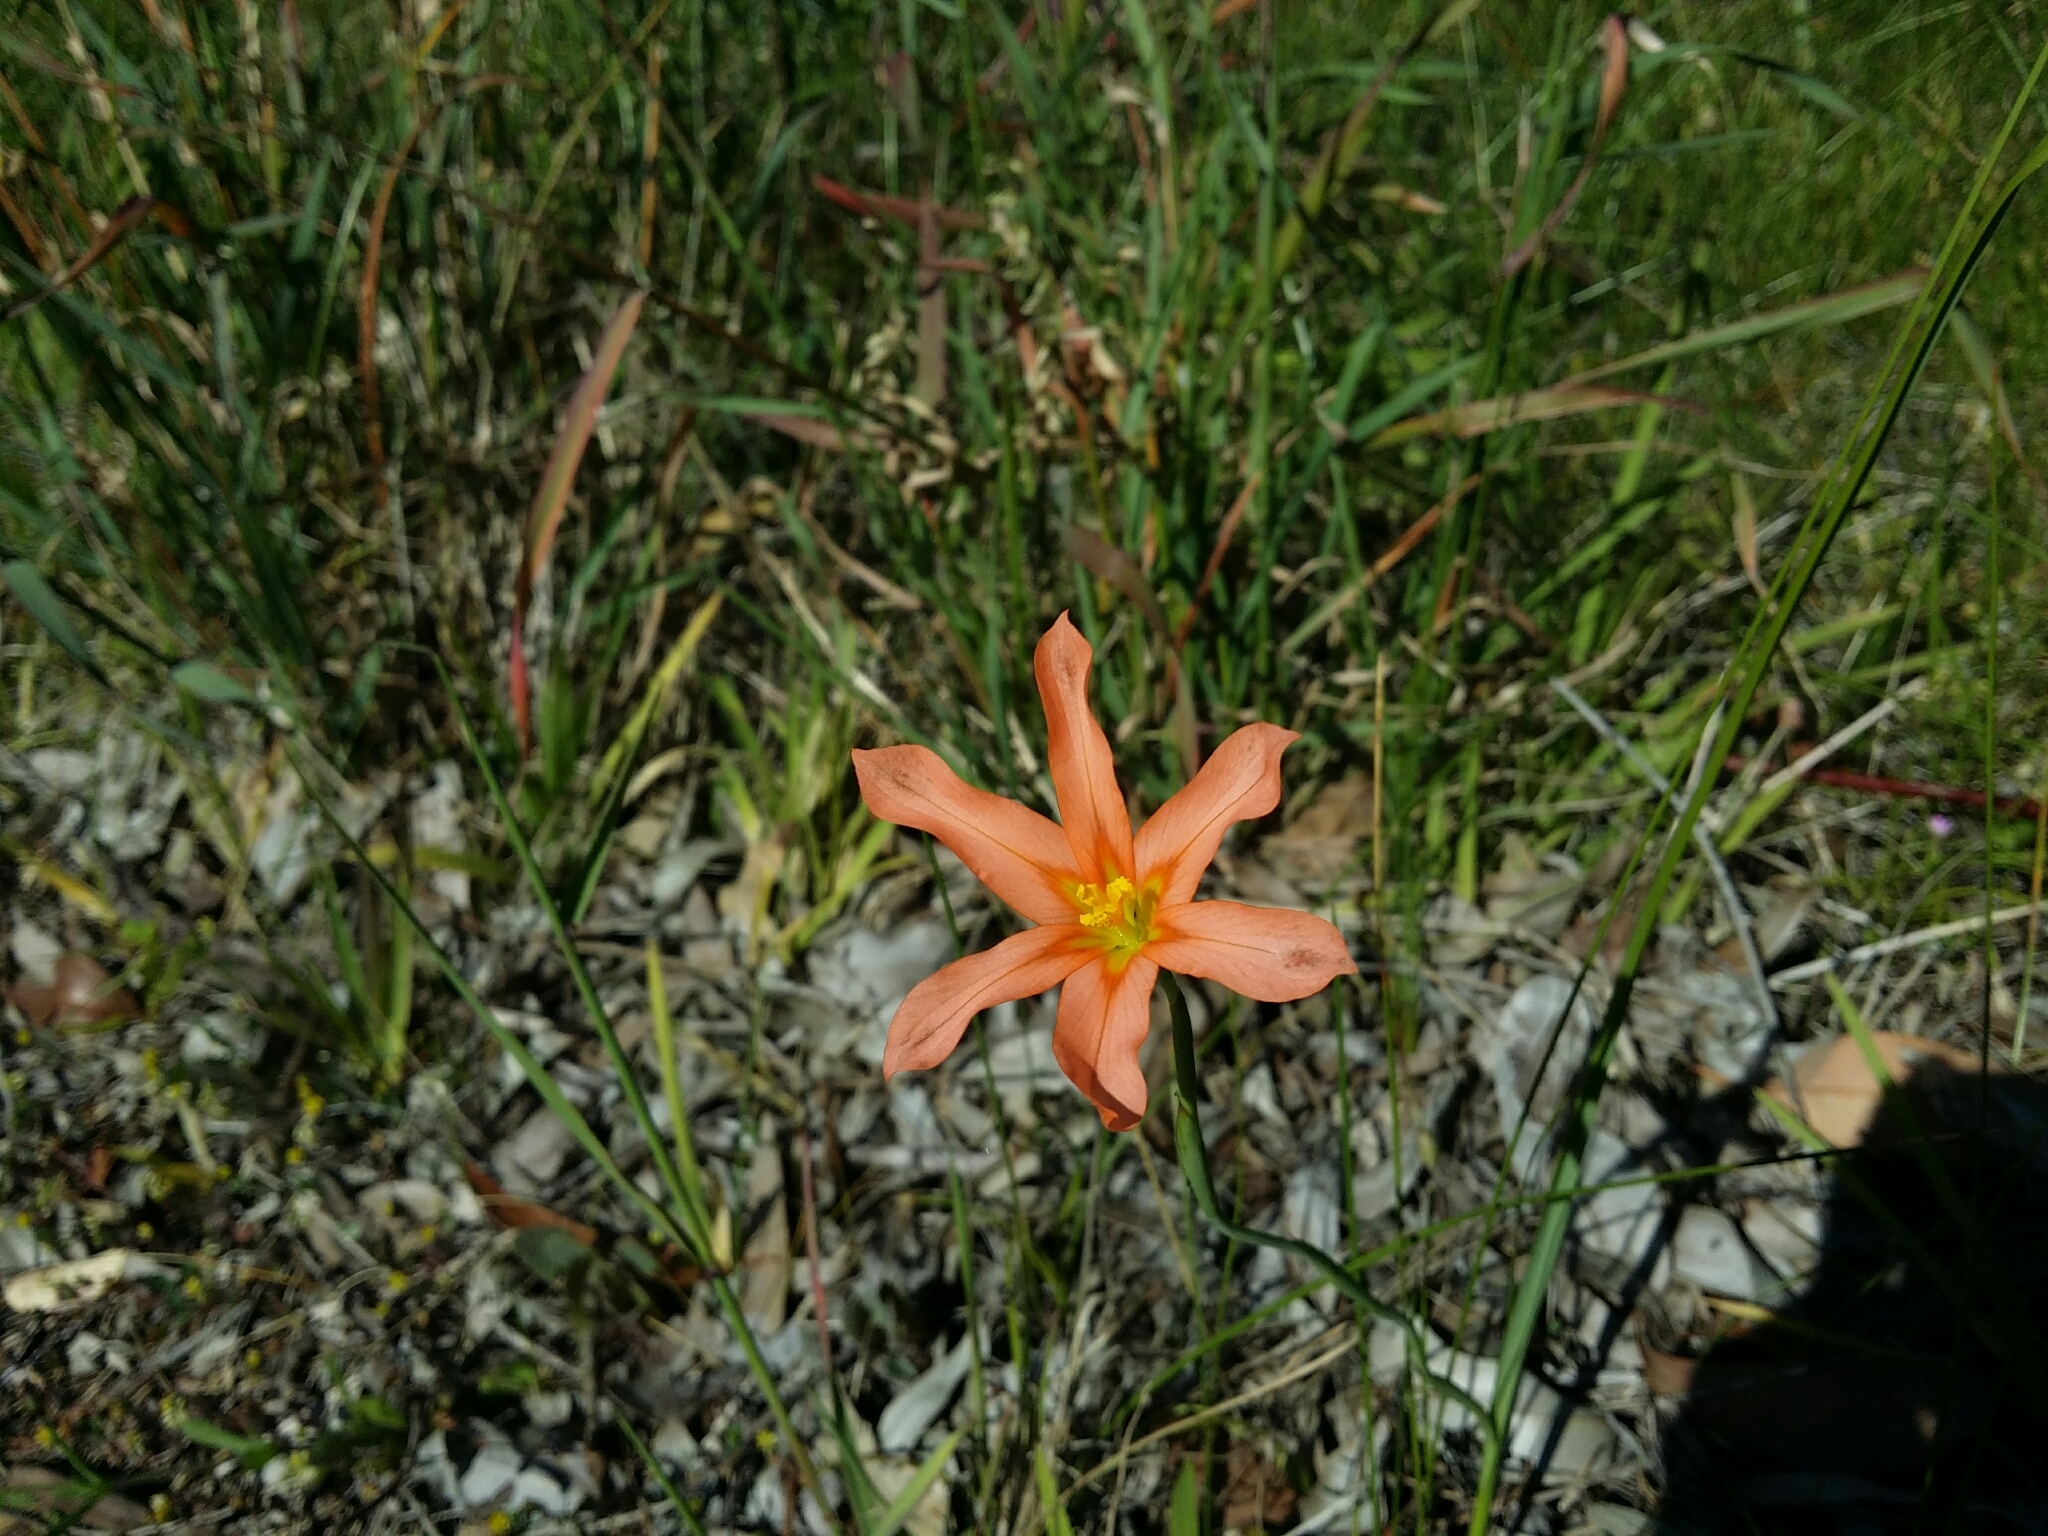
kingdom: Plantae
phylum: Tracheophyta
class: Liliopsida
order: Asparagales
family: Iridaceae
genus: Moraea
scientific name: Moraea flaccida
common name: One-leaf cape-tulip
